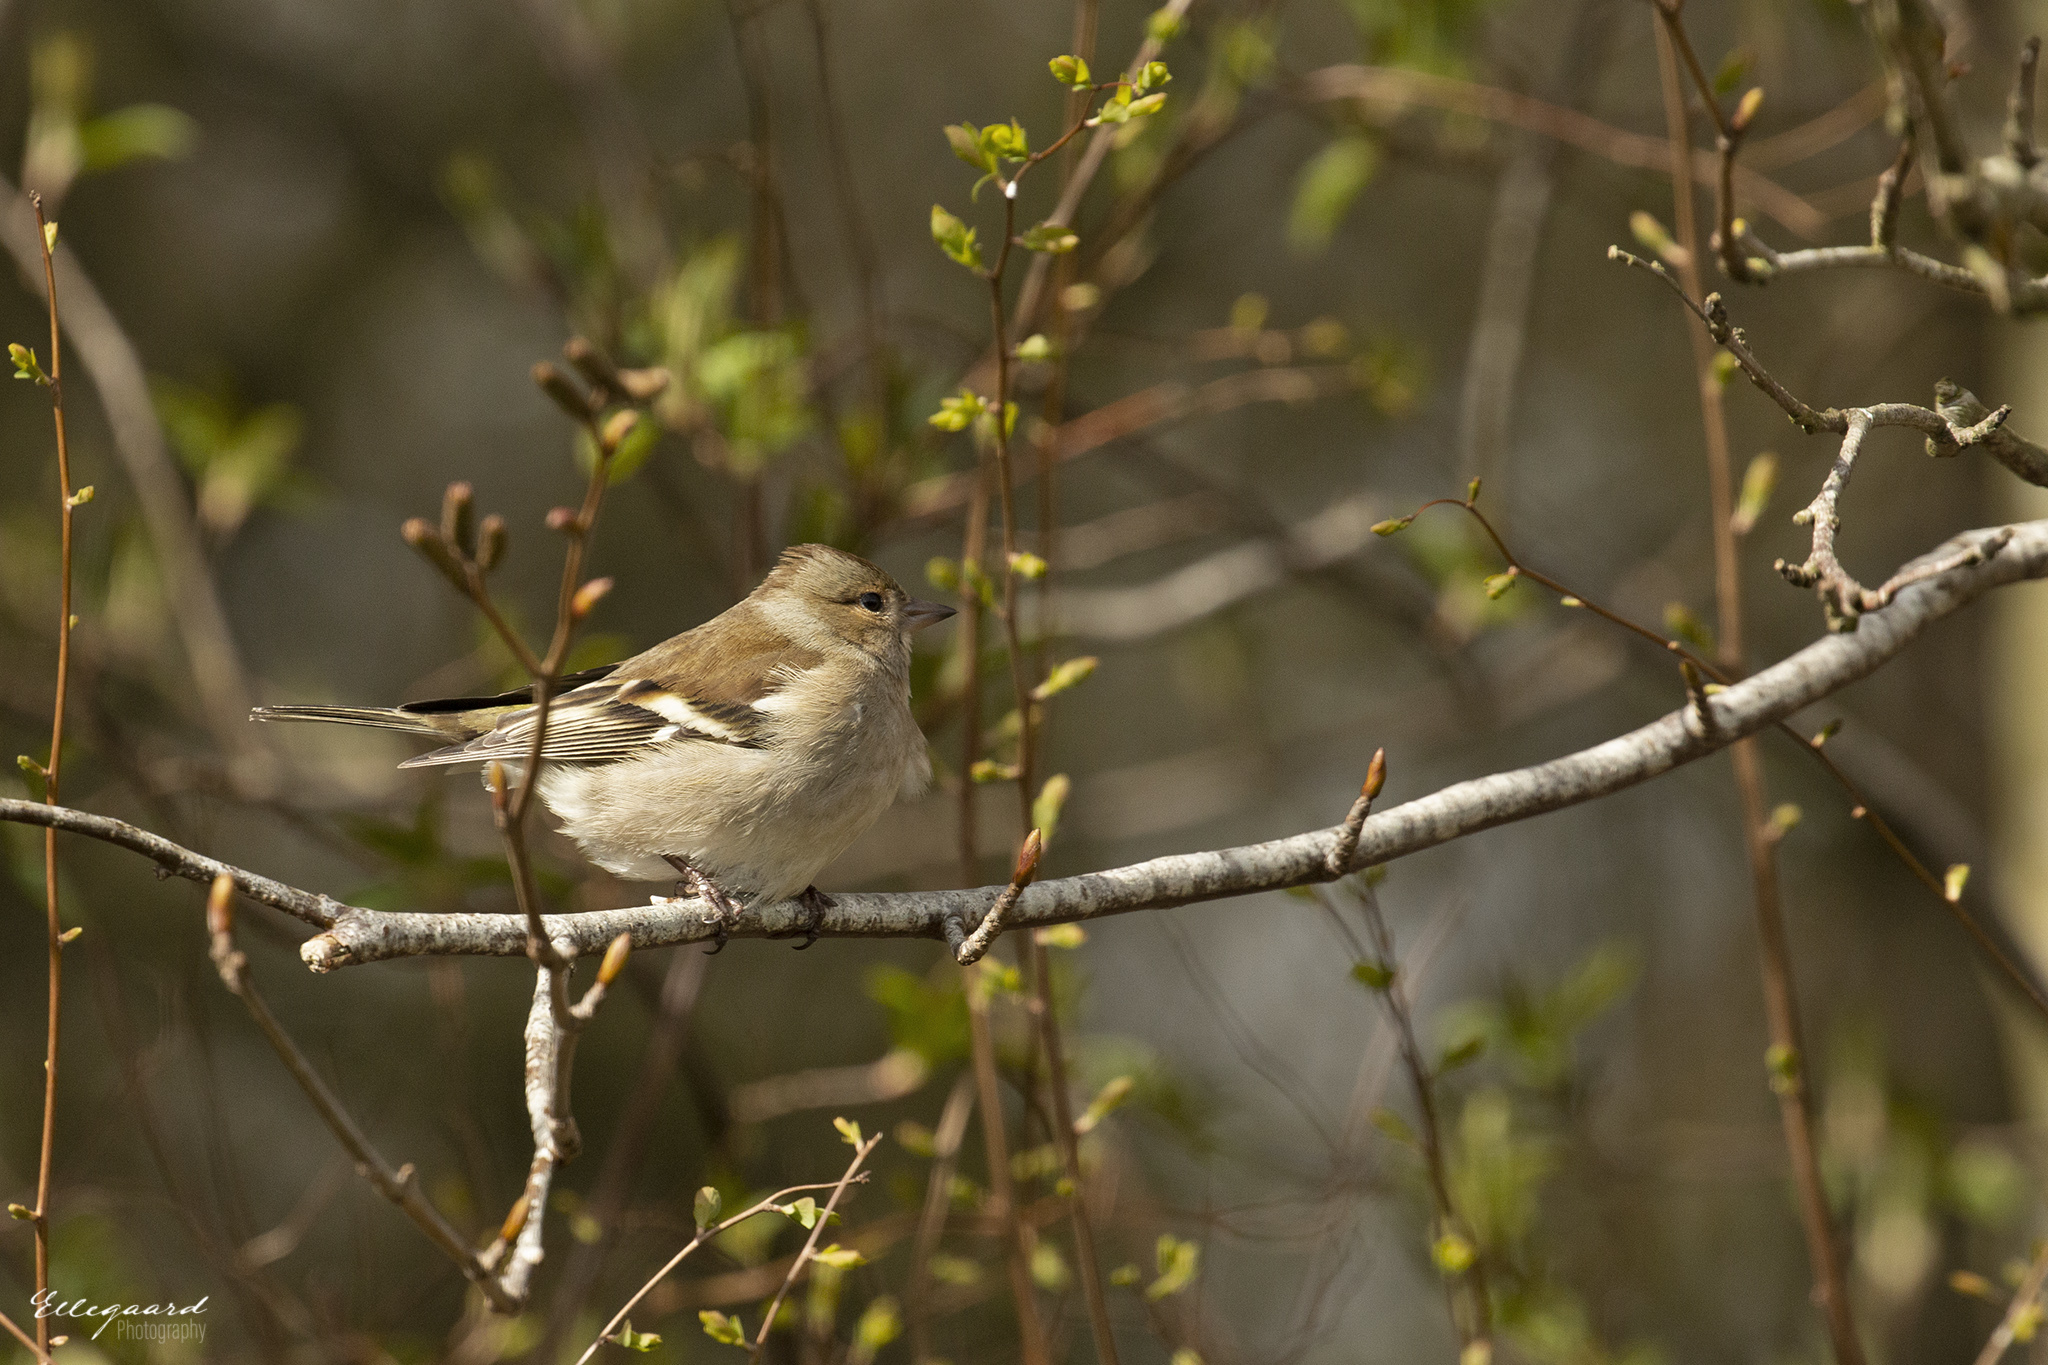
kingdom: Animalia
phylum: Chordata
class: Aves
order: Passeriformes
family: Fringillidae
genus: Fringilla
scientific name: Fringilla coelebs
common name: Common chaffinch
